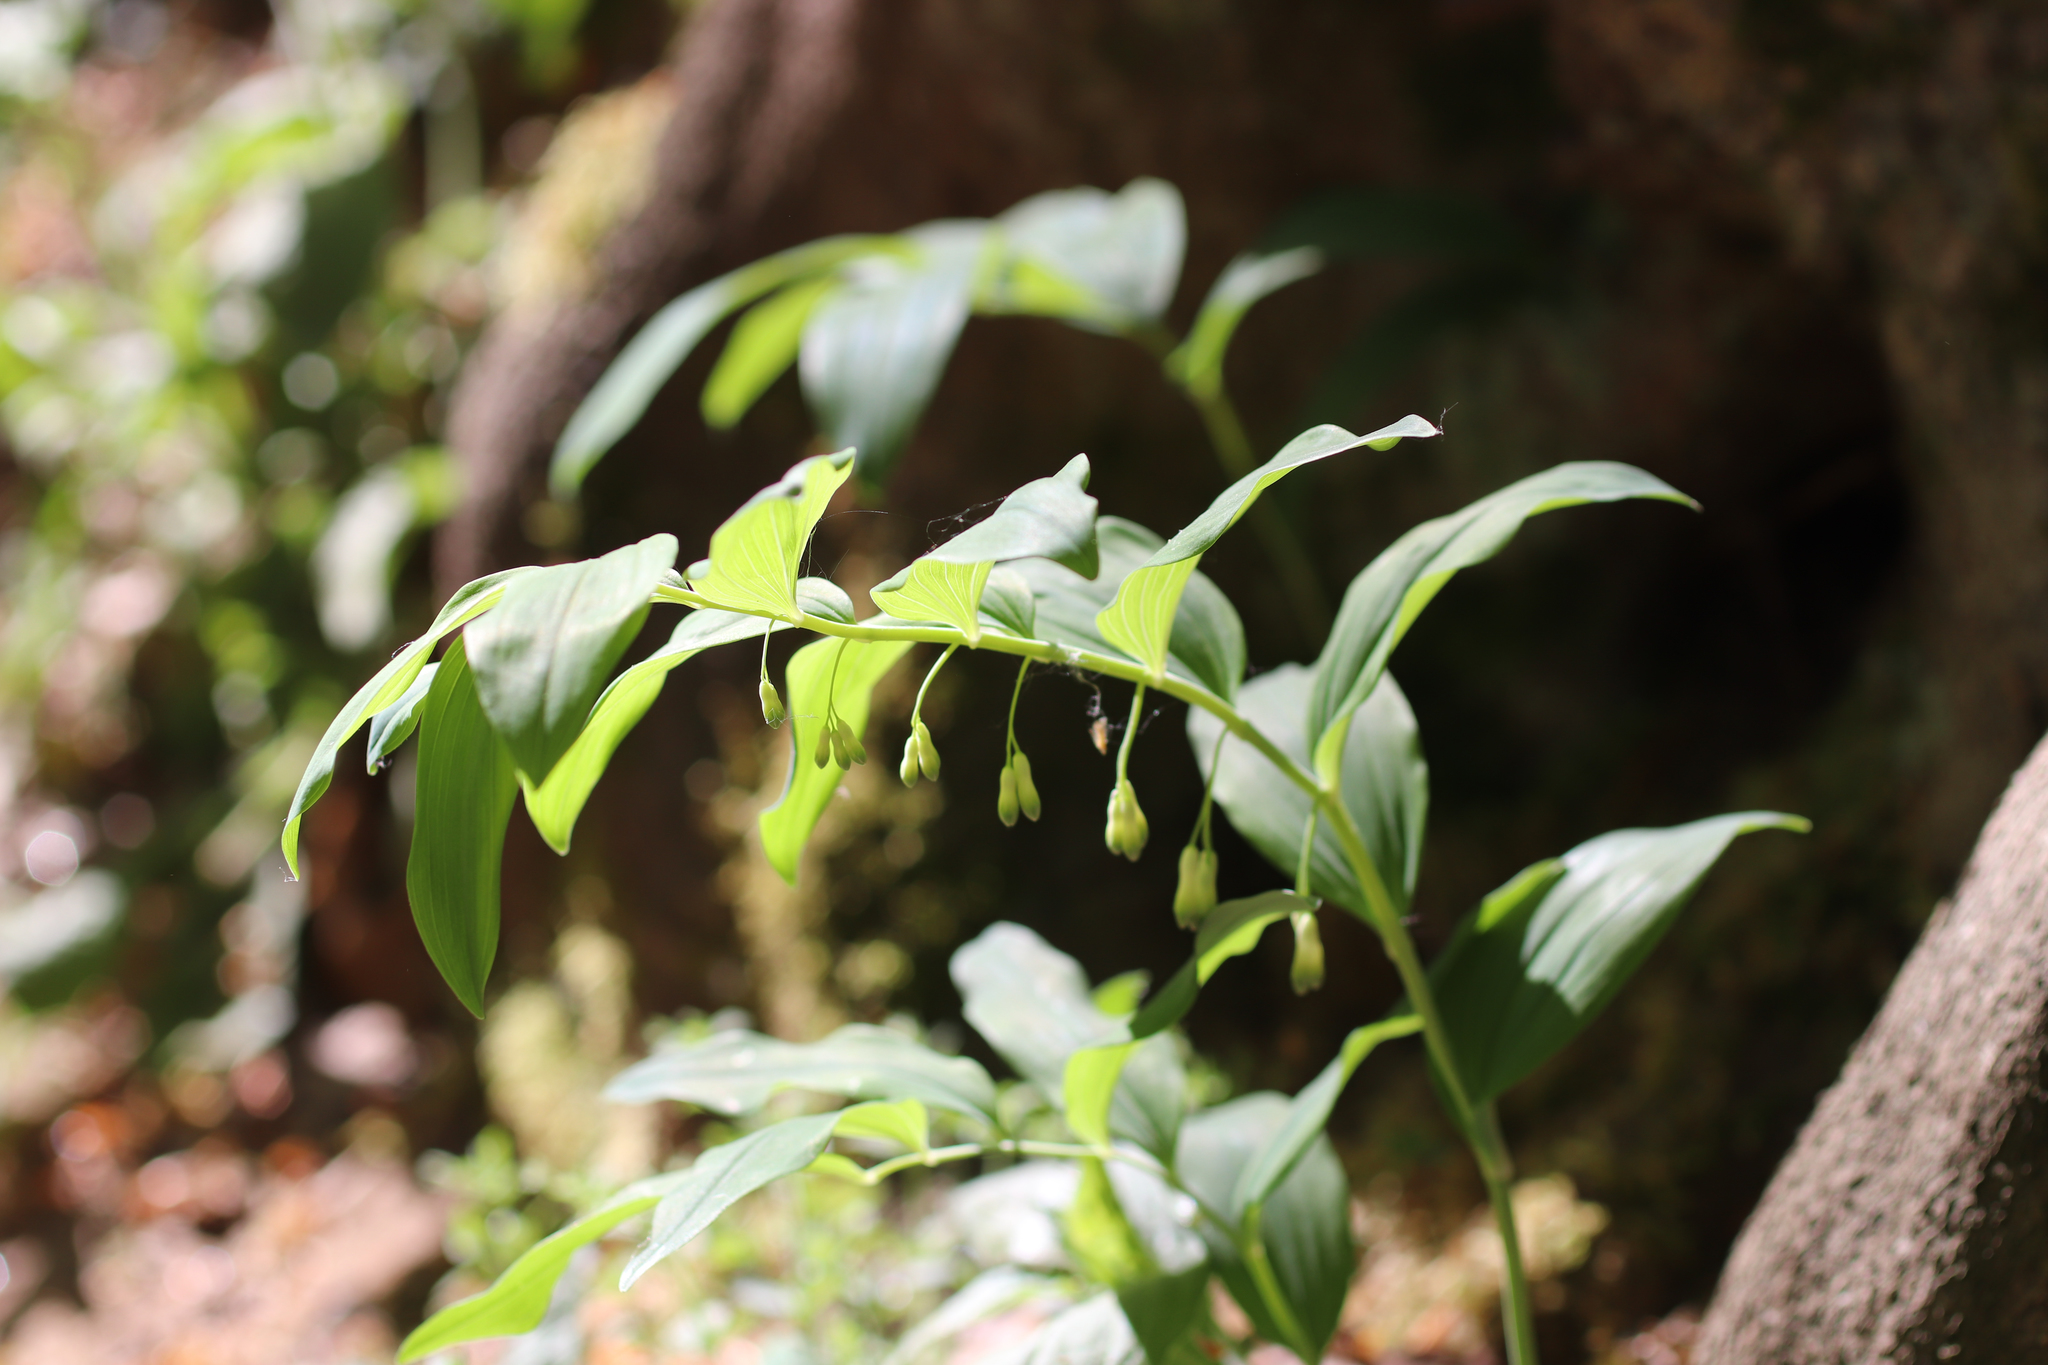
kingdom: Plantae
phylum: Tracheophyta
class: Liliopsida
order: Asparagales
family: Asparagaceae
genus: Polygonatum
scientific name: Polygonatum multiflorum
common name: Solomon's-seal
